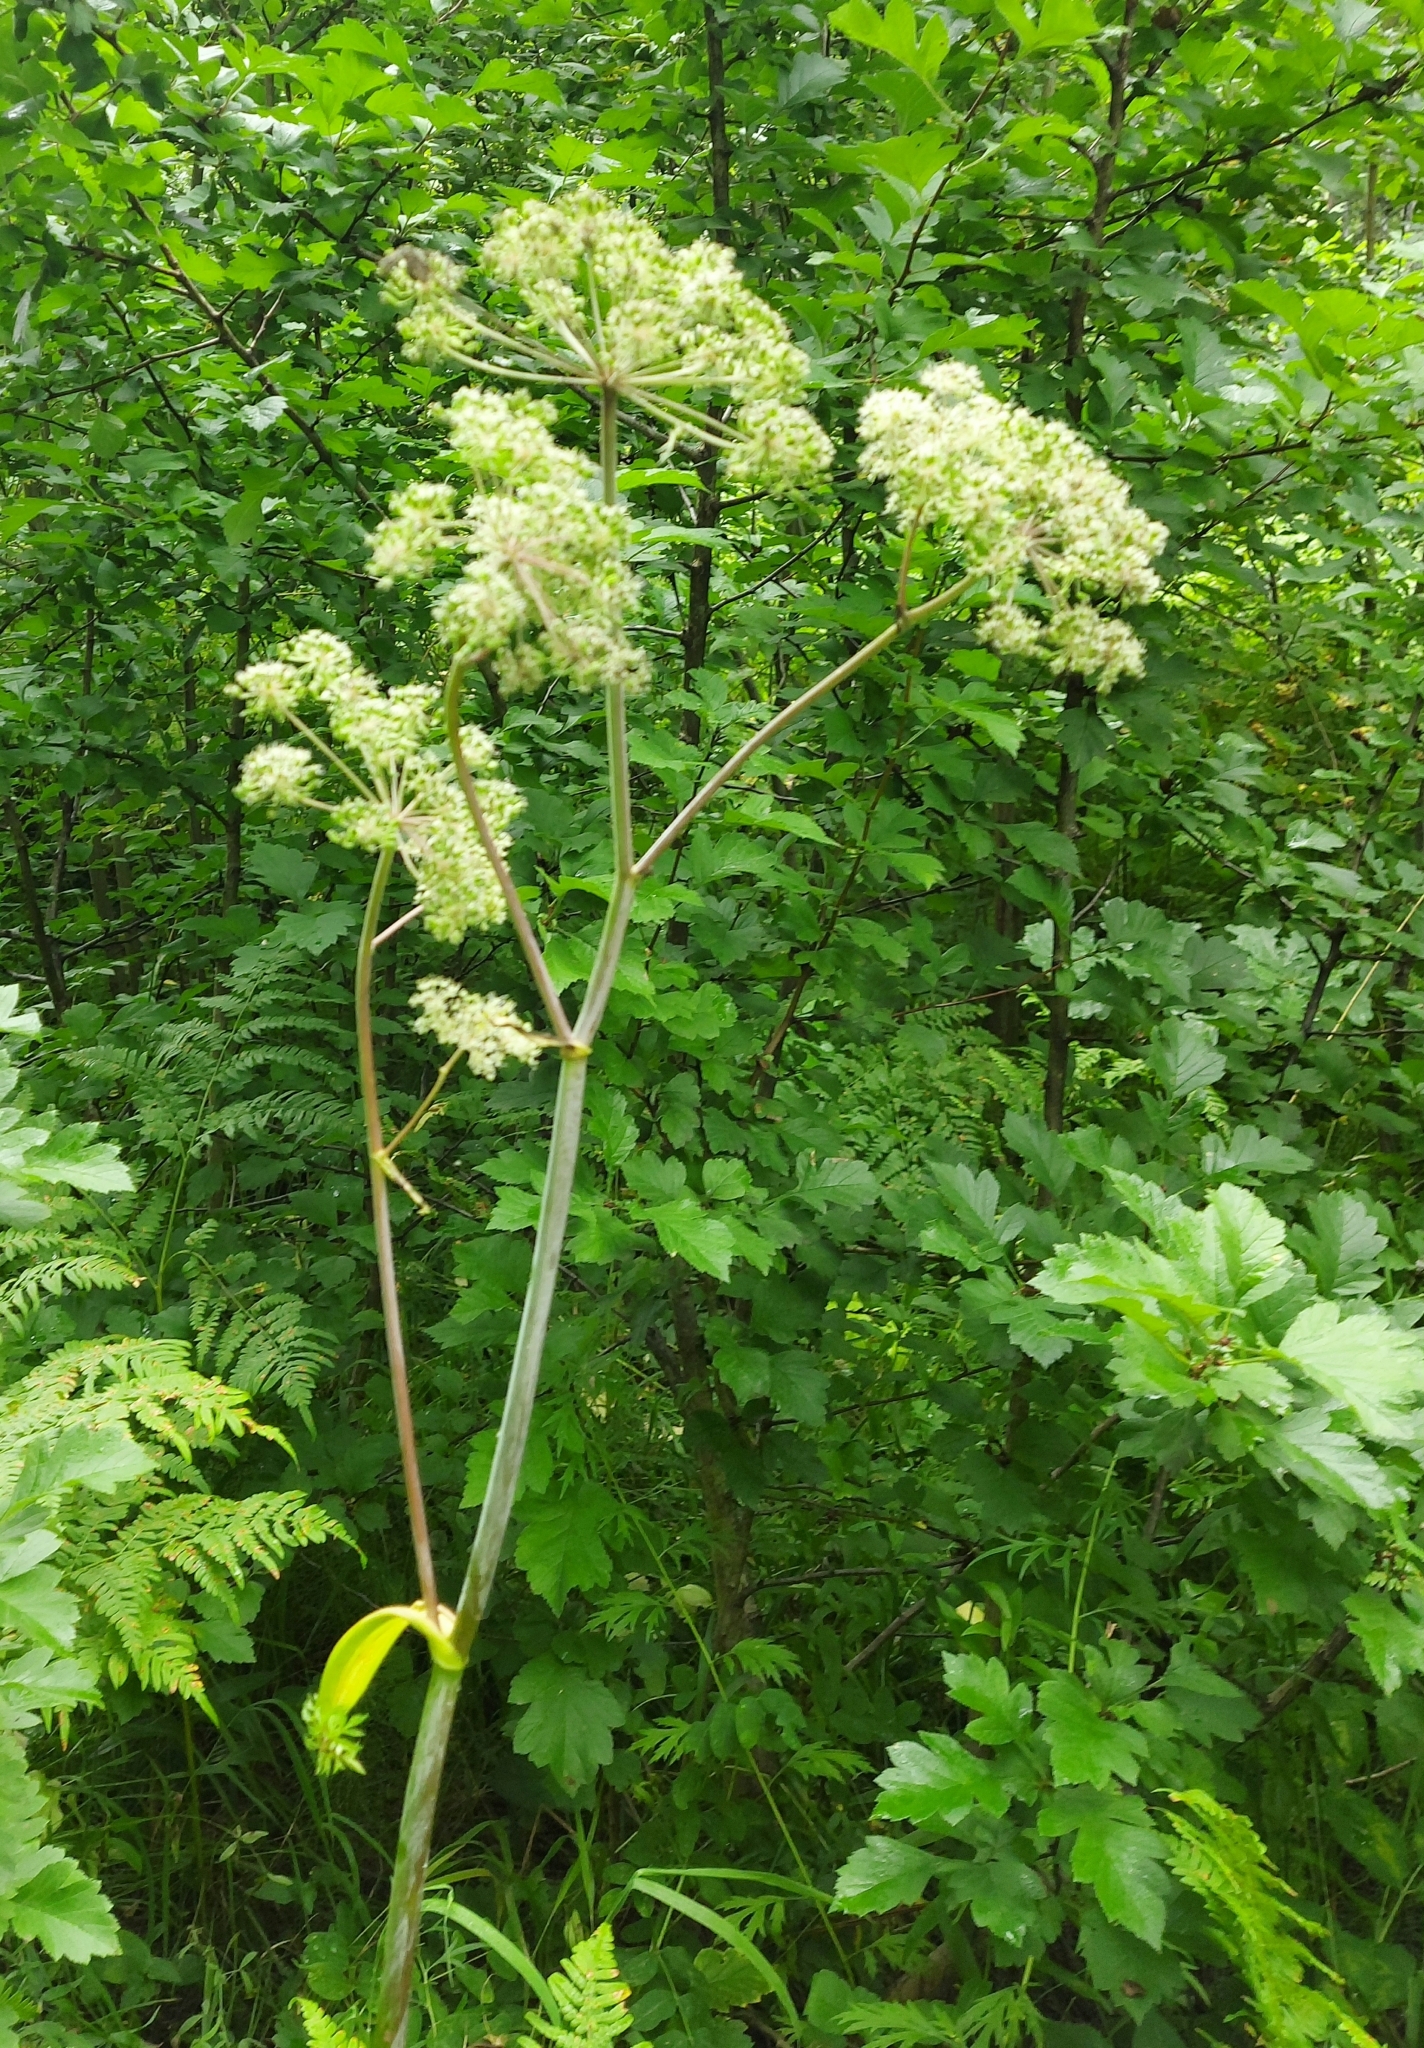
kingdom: Plantae
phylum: Tracheophyta
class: Magnoliopsida
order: Apiales
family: Apiaceae
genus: Angelica
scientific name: Angelica sylvestris
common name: Wild angelica
